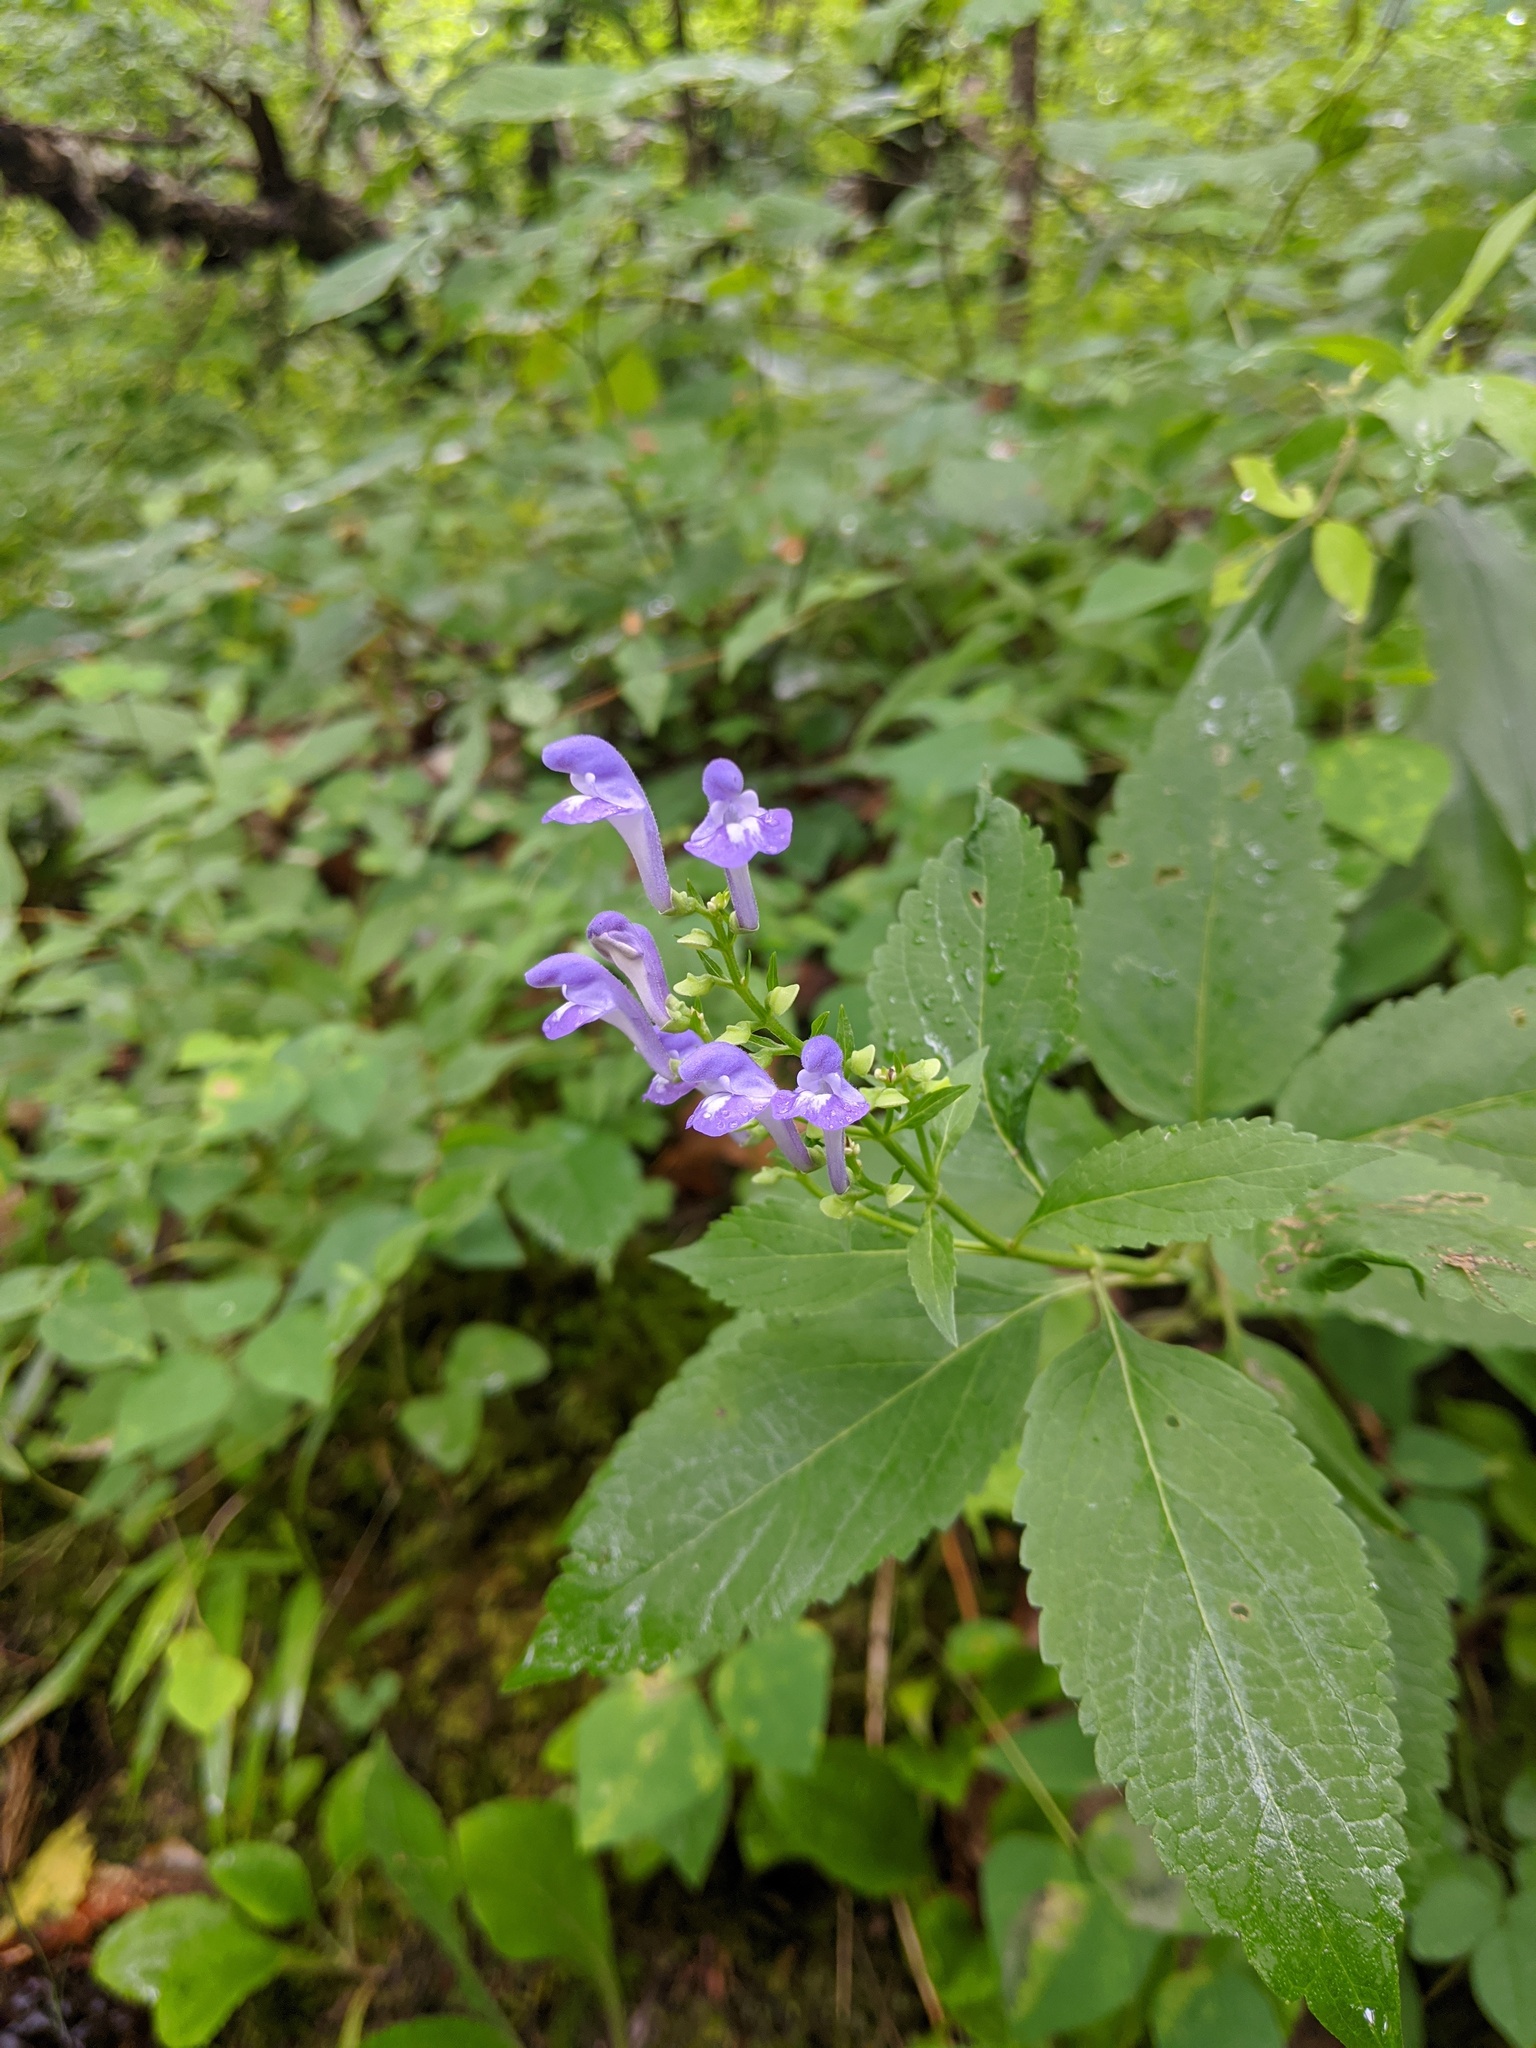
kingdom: Plantae
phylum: Tracheophyta
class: Magnoliopsida
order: Lamiales
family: Lamiaceae
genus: Scutellaria
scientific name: Scutellaria incana
